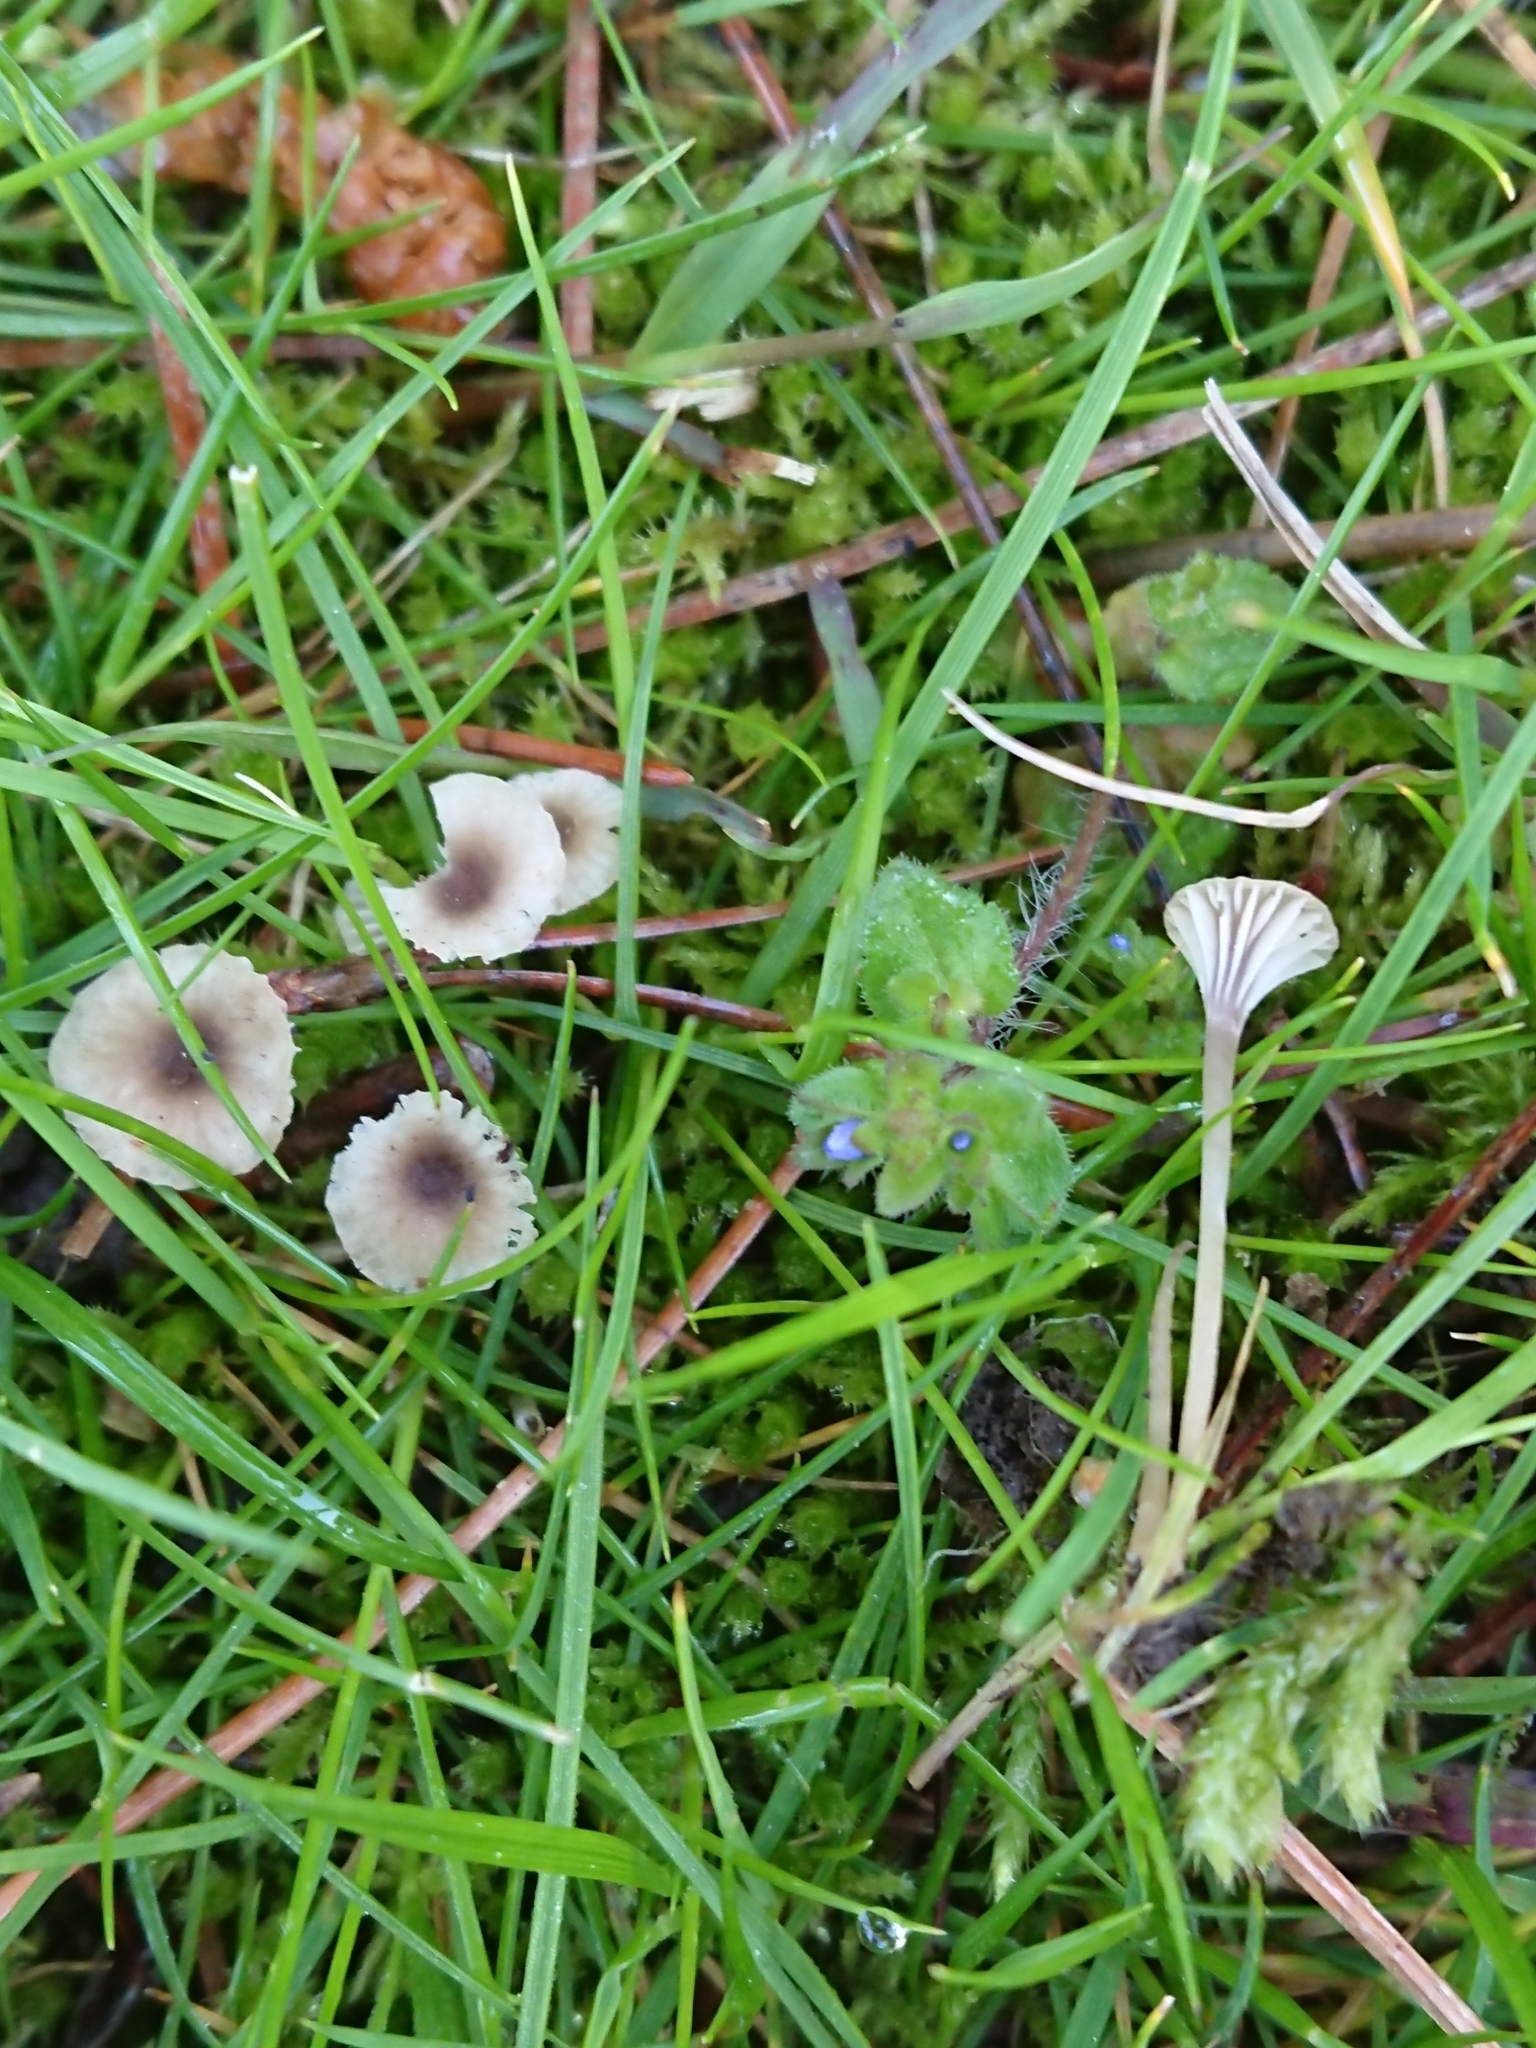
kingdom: Fungi
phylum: Basidiomycota
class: Agaricomycetes
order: Hymenochaetales
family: Rickenellaceae
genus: Rickenella
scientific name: Rickenella swartzii
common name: Collared mosscap
